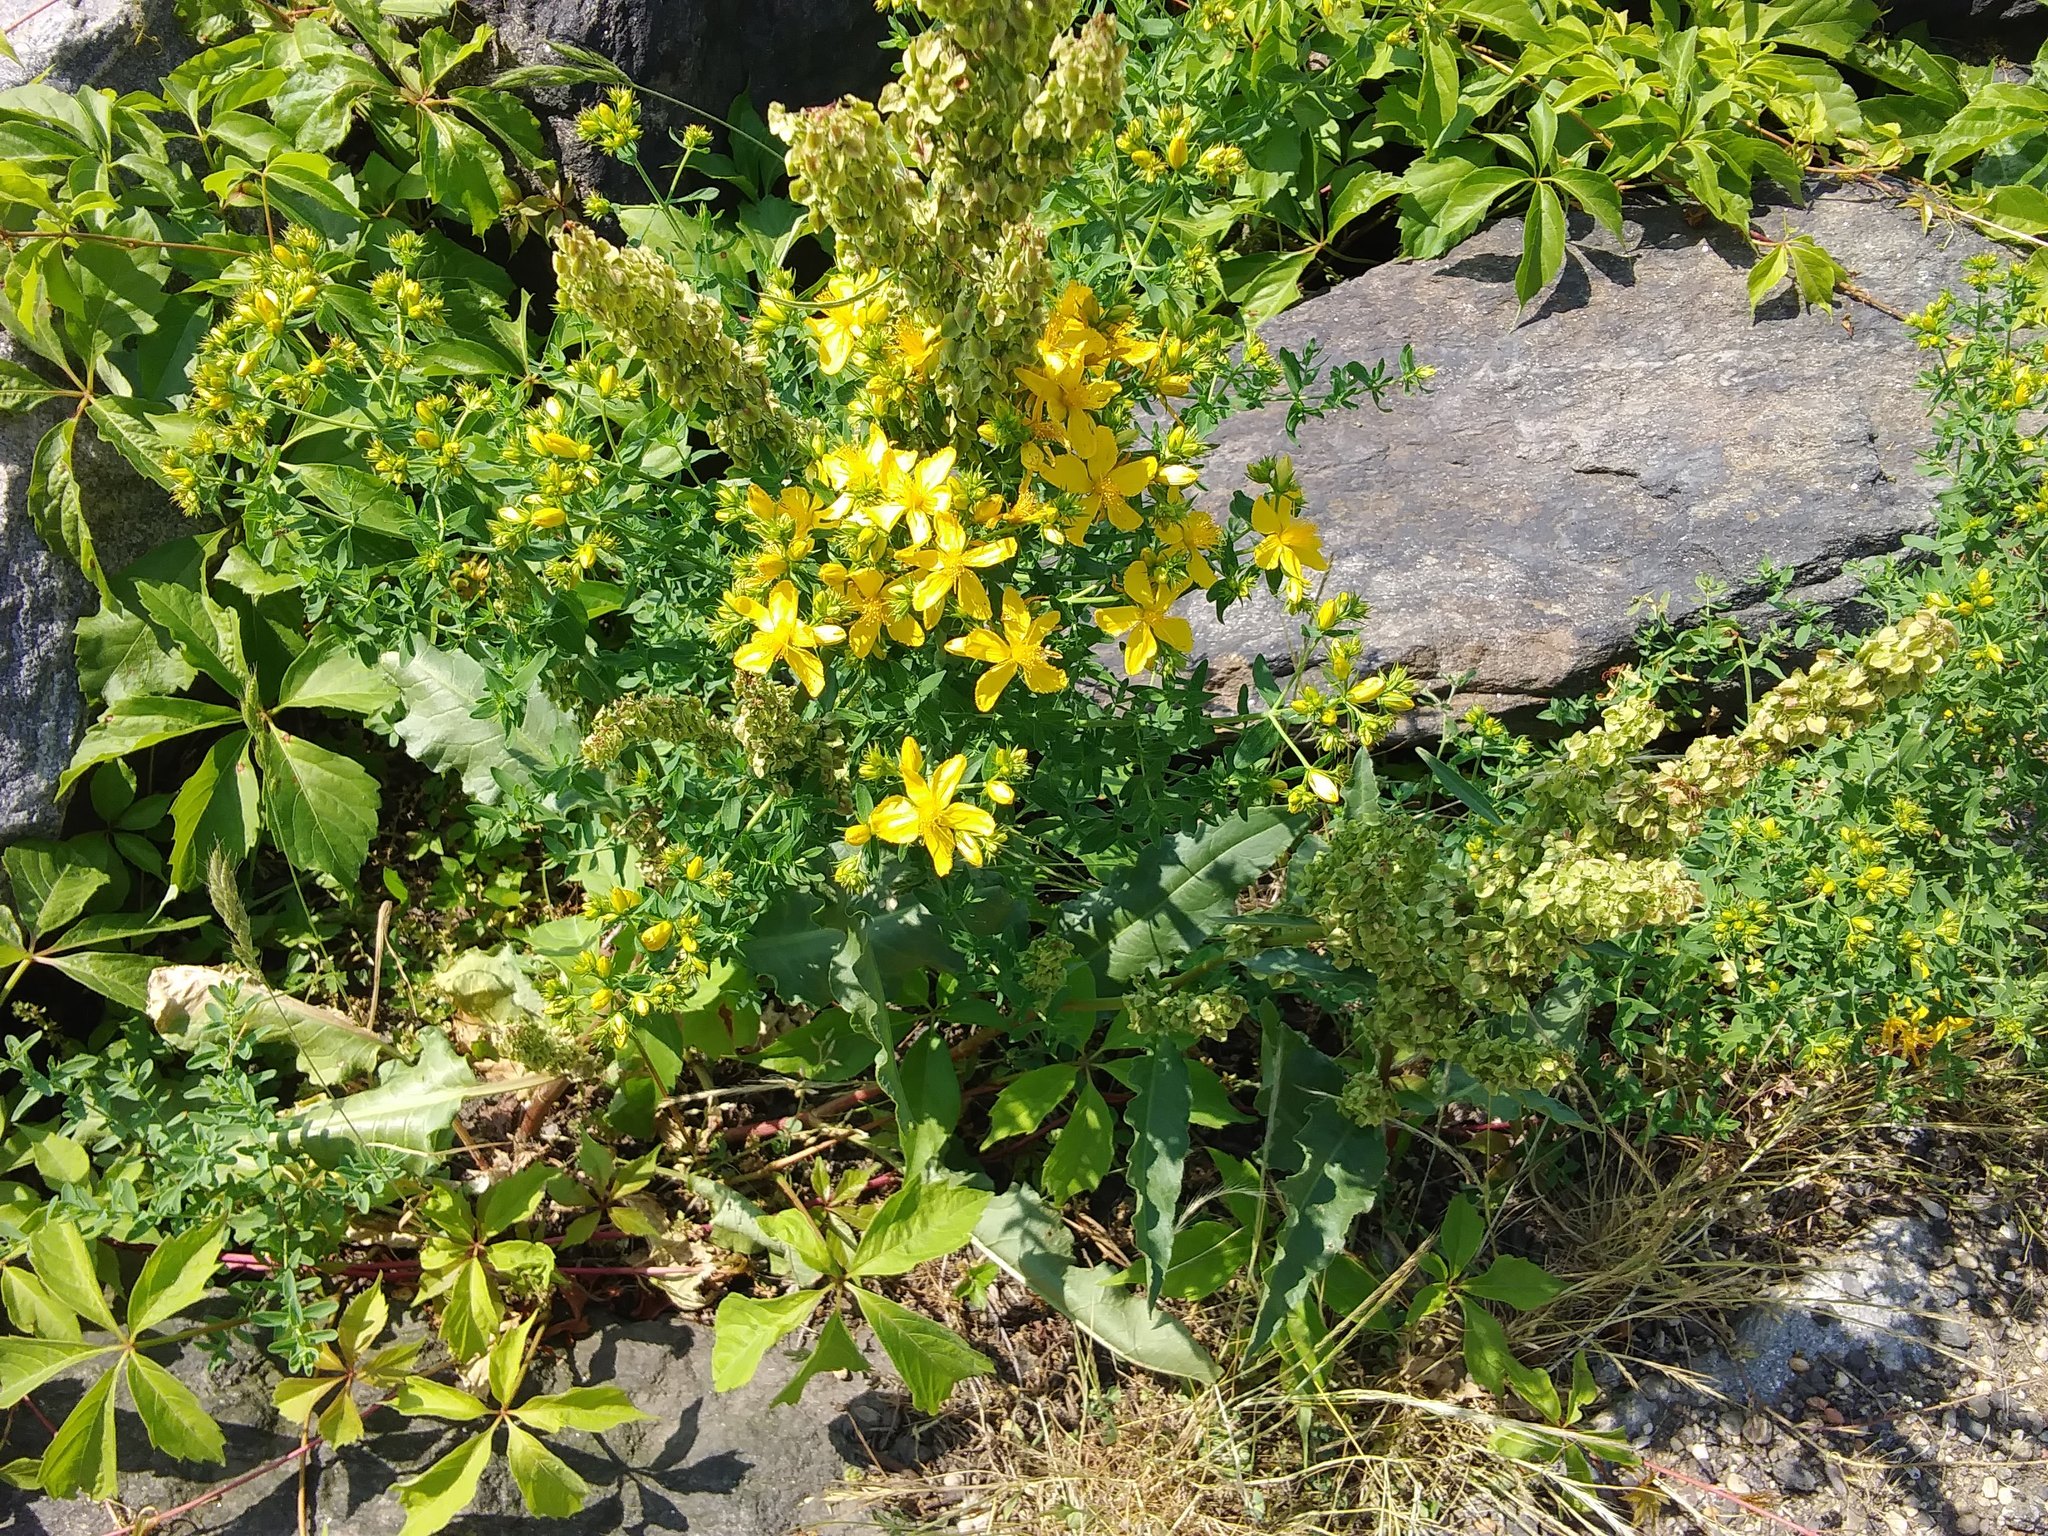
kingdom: Plantae
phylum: Tracheophyta
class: Magnoliopsida
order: Malpighiales
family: Hypericaceae
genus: Hypericum
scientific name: Hypericum perforatum
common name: Common st. johnswort
